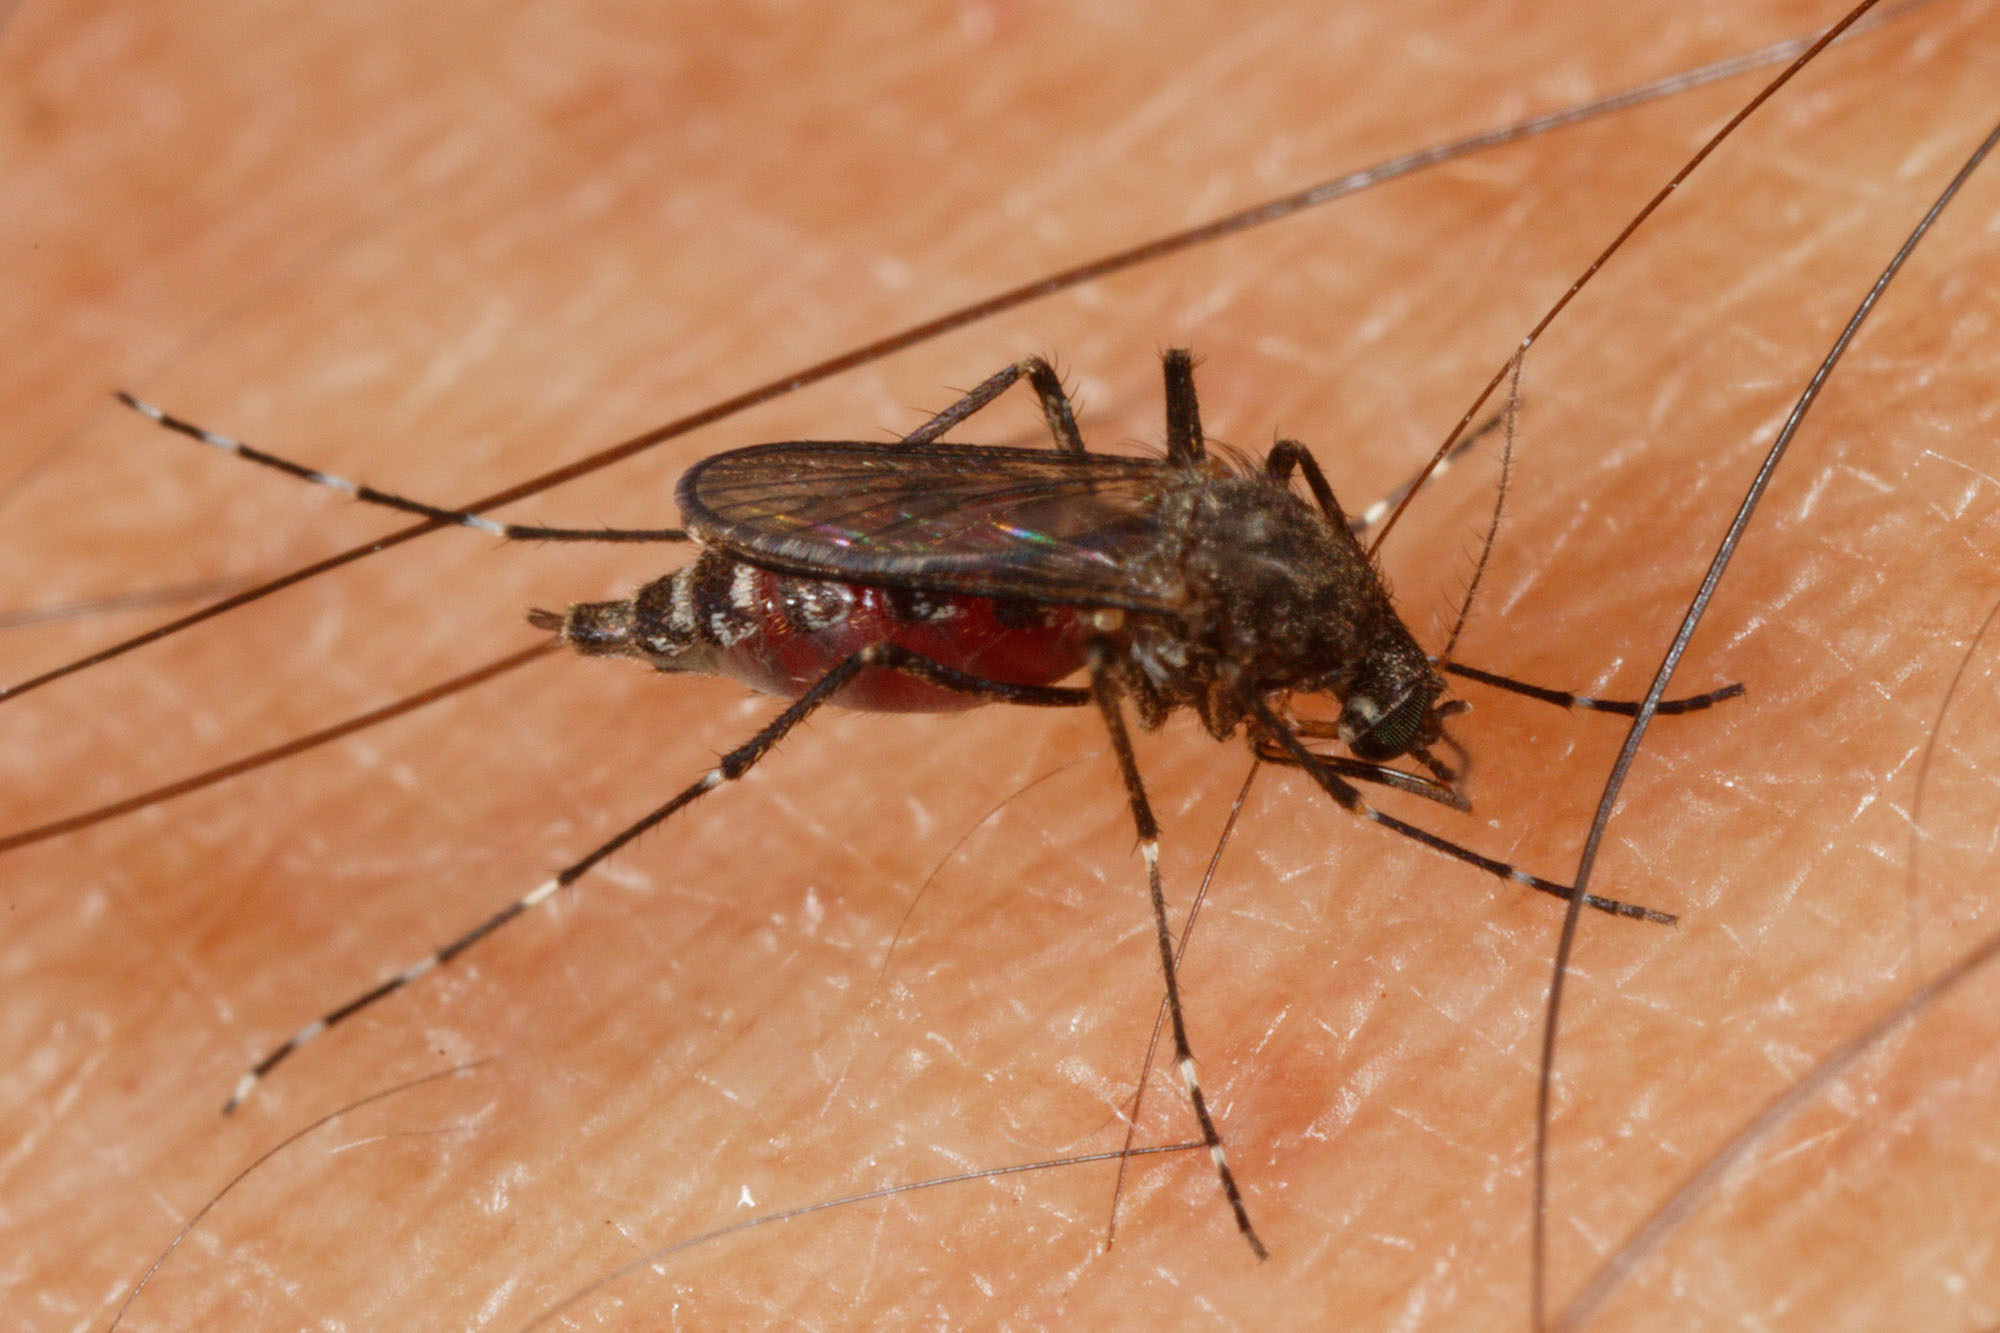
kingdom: Animalia
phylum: Arthropoda
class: Insecta
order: Diptera
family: Culicidae
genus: Aedes
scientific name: Aedes vigilax
